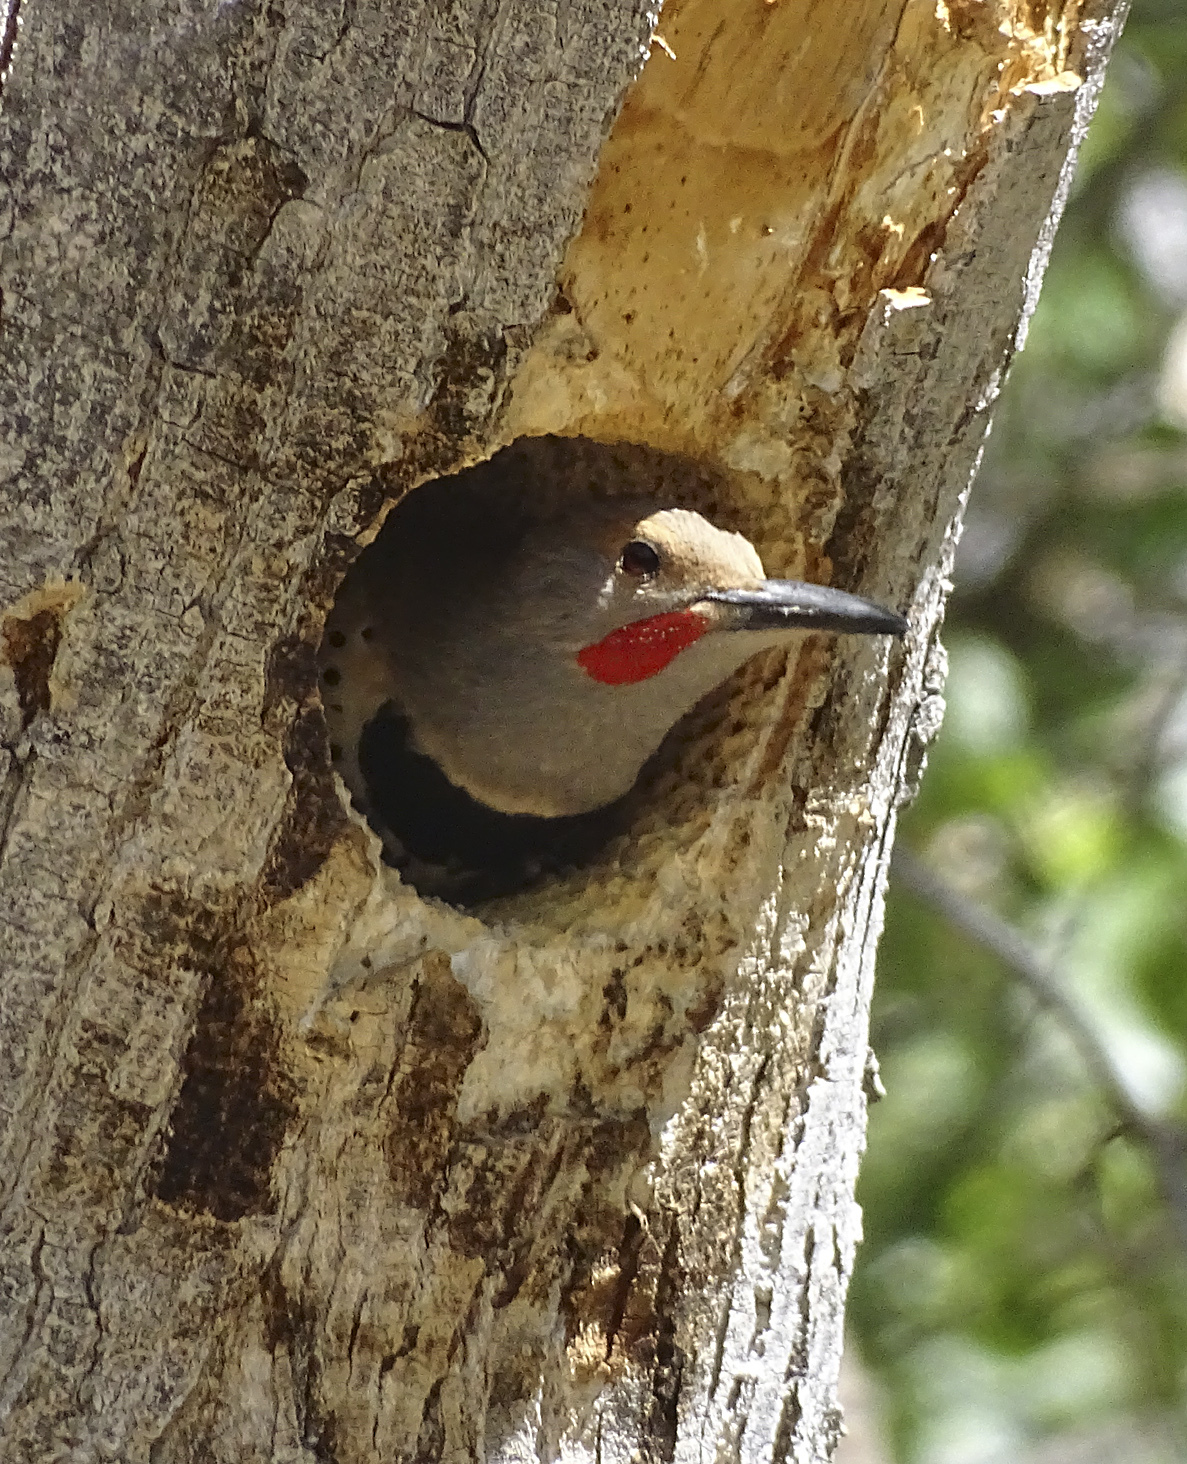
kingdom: Animalia
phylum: Chordata
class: Aves
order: Piciformes
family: Picidae
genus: Colaptes
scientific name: Colaptes auratus
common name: Northern flicker
